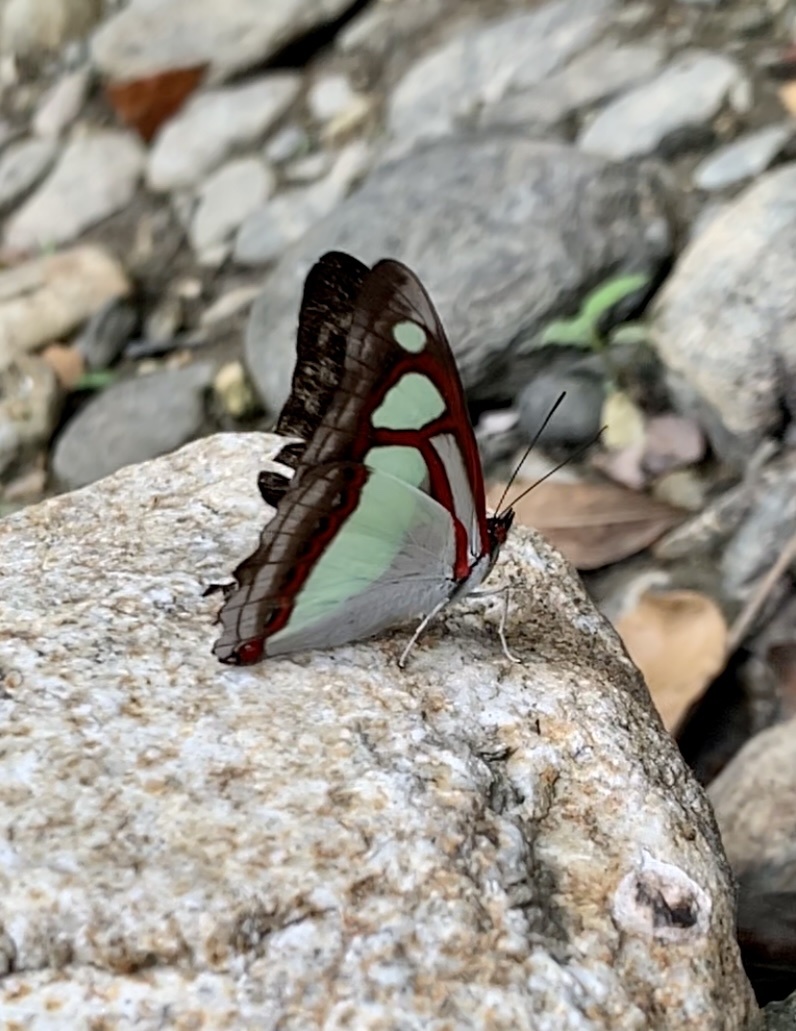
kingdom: Animalia
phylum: Arthropoda
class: Insecta
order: Lepidoptera
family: Nymphalidae
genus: Pyrrhogyra
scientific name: Pyrrhogyra otolais
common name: Double-banded banner
